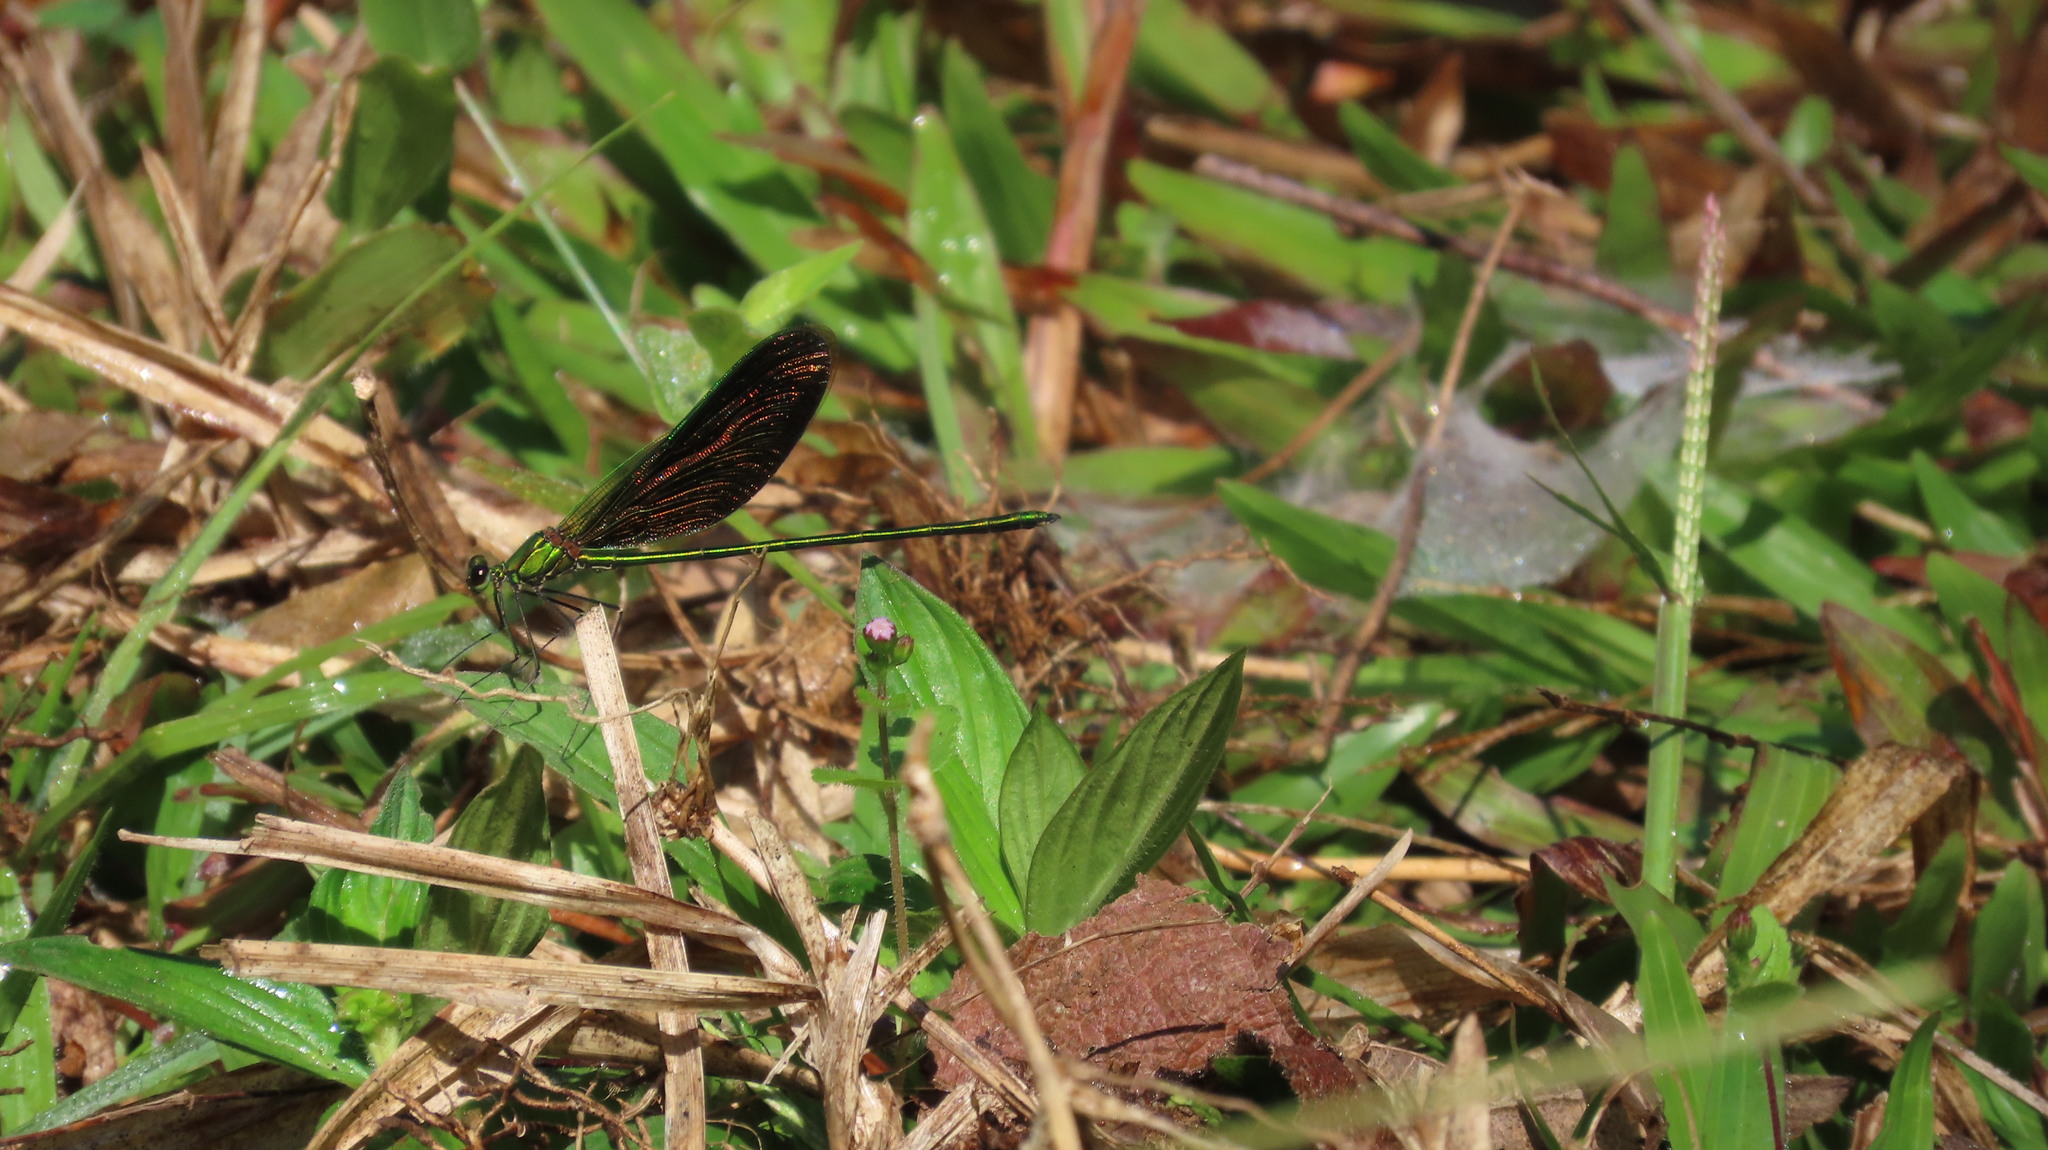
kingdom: Animalia
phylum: Arthropoda
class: Insecta
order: Odonata
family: Calopterygidae
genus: Neurobasis
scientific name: Neurobasis chinensis
